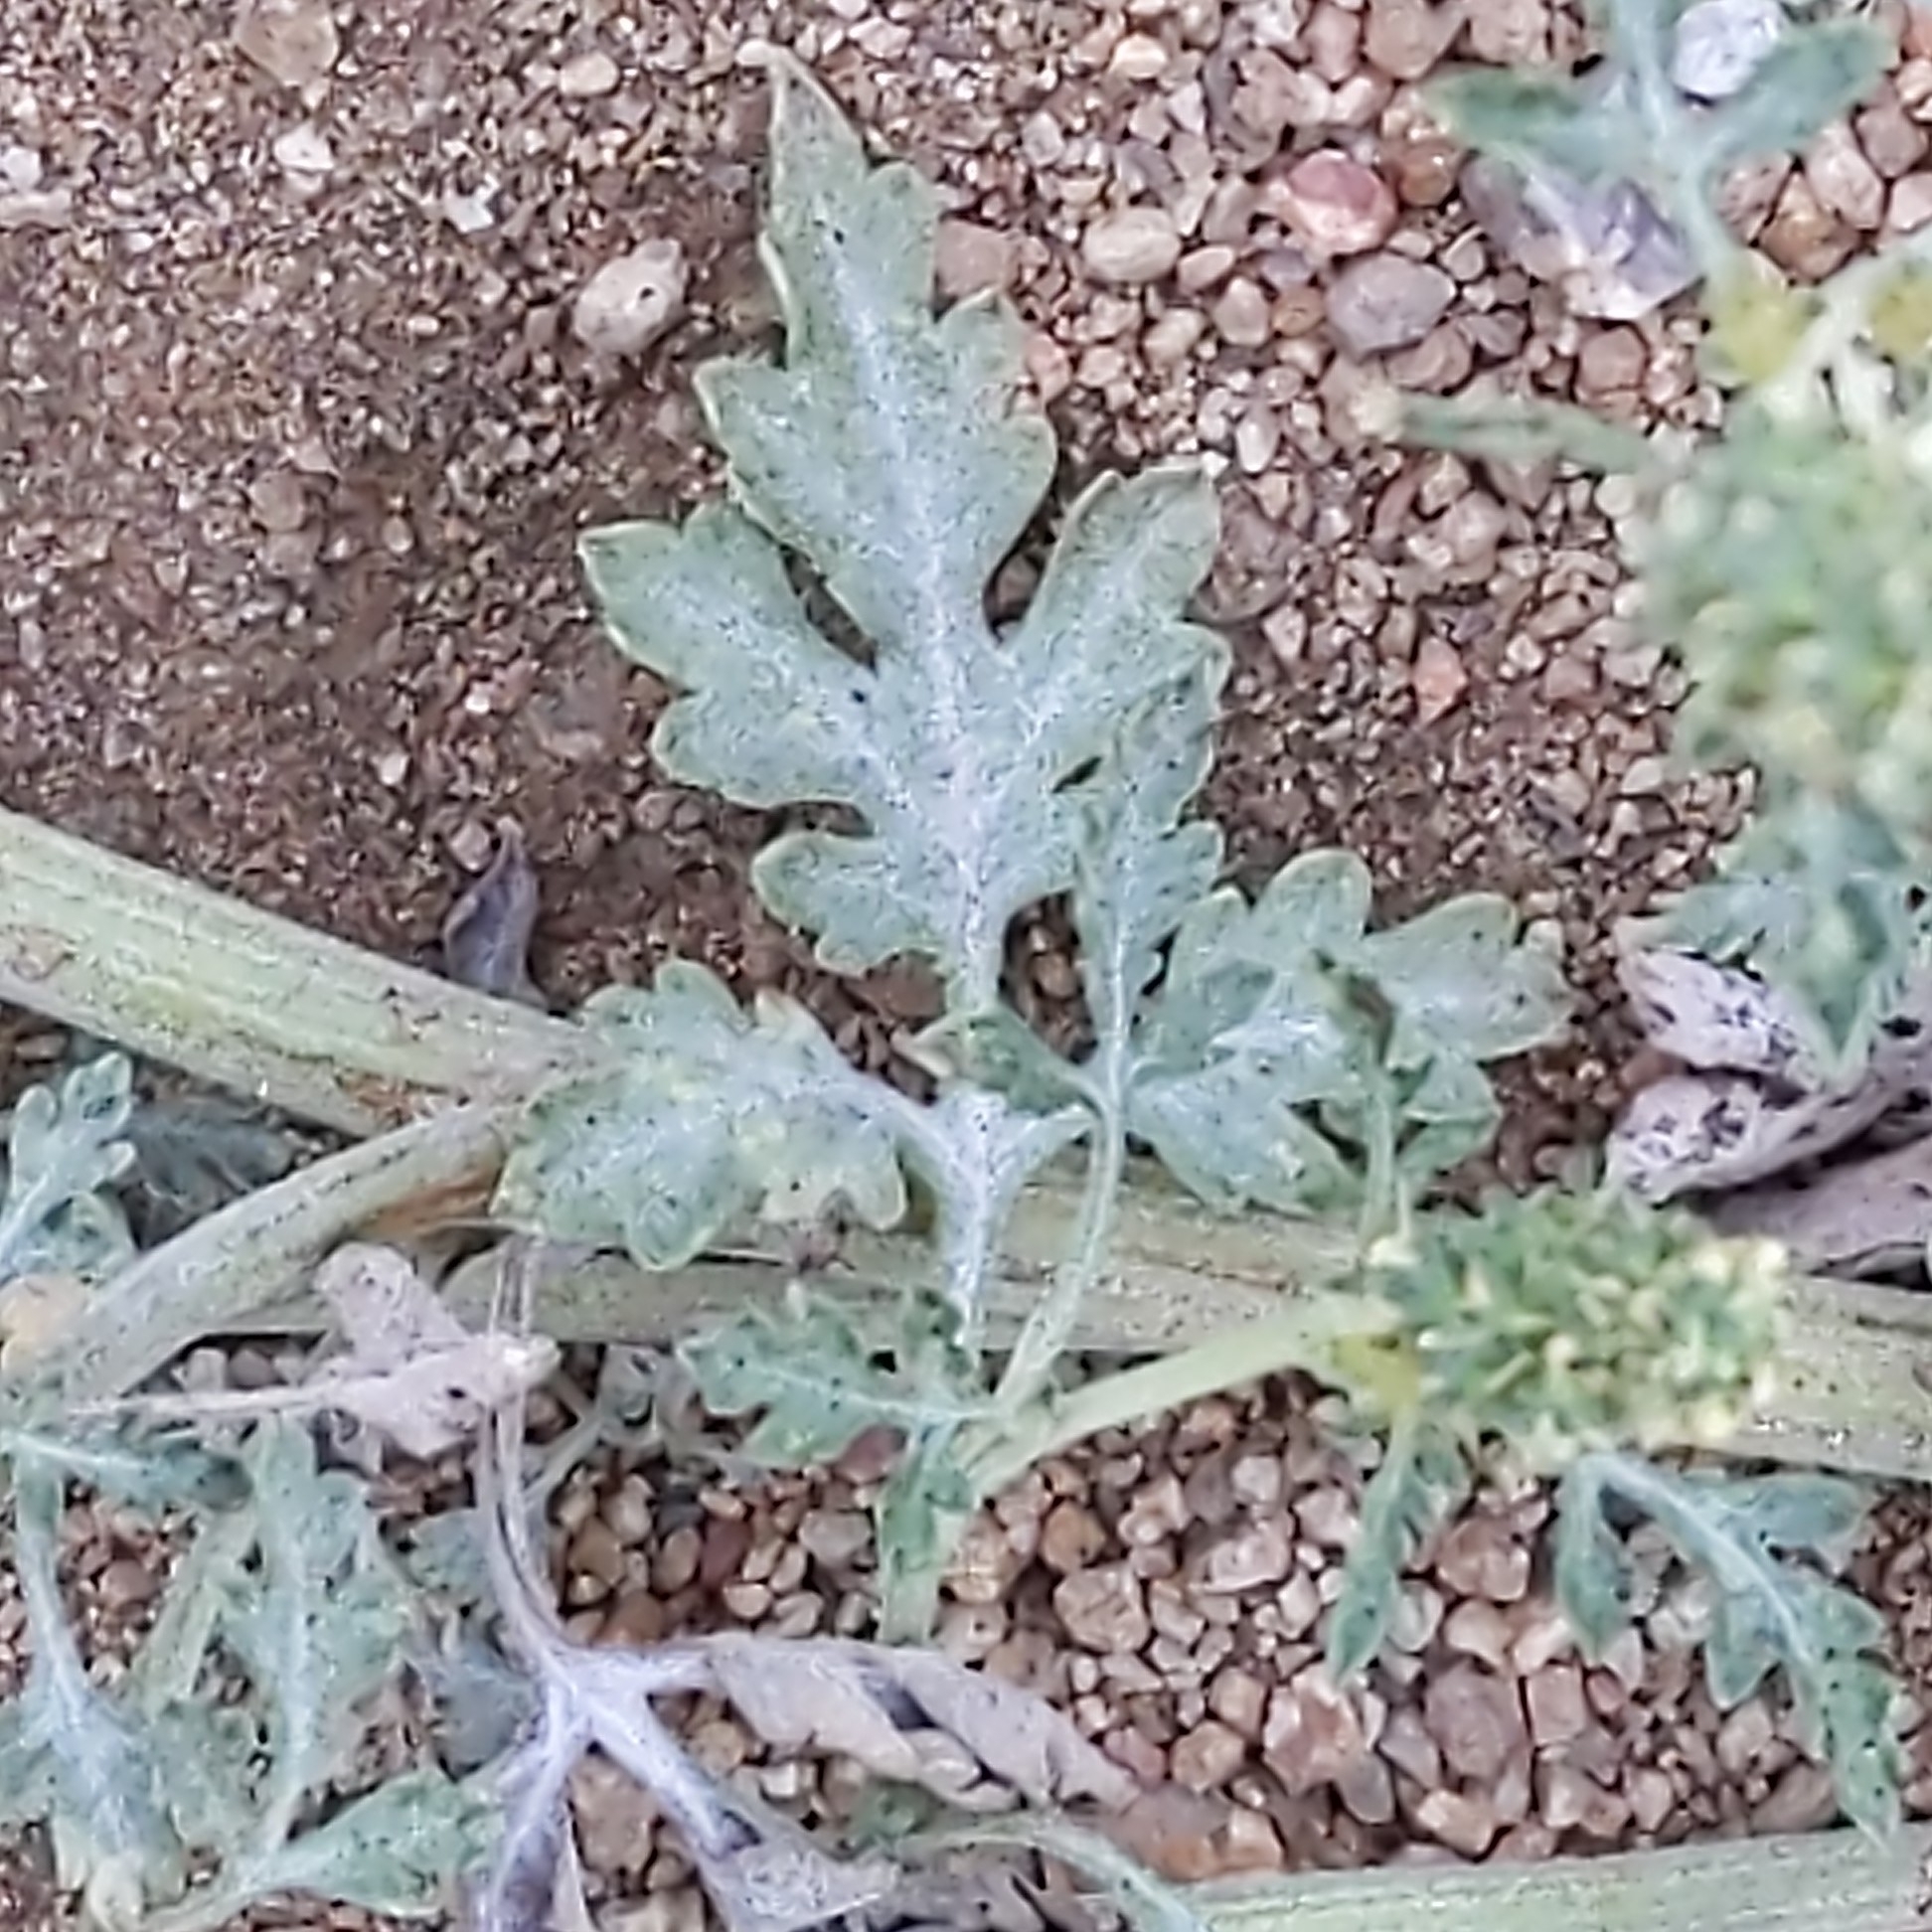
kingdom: Plantae
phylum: Tracheophyta
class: Magnoliopsida
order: Asterales
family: Asteraceae
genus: Ambrosia
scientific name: Ambrosia acanthicarpa
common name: Hooker's bur ragweed
